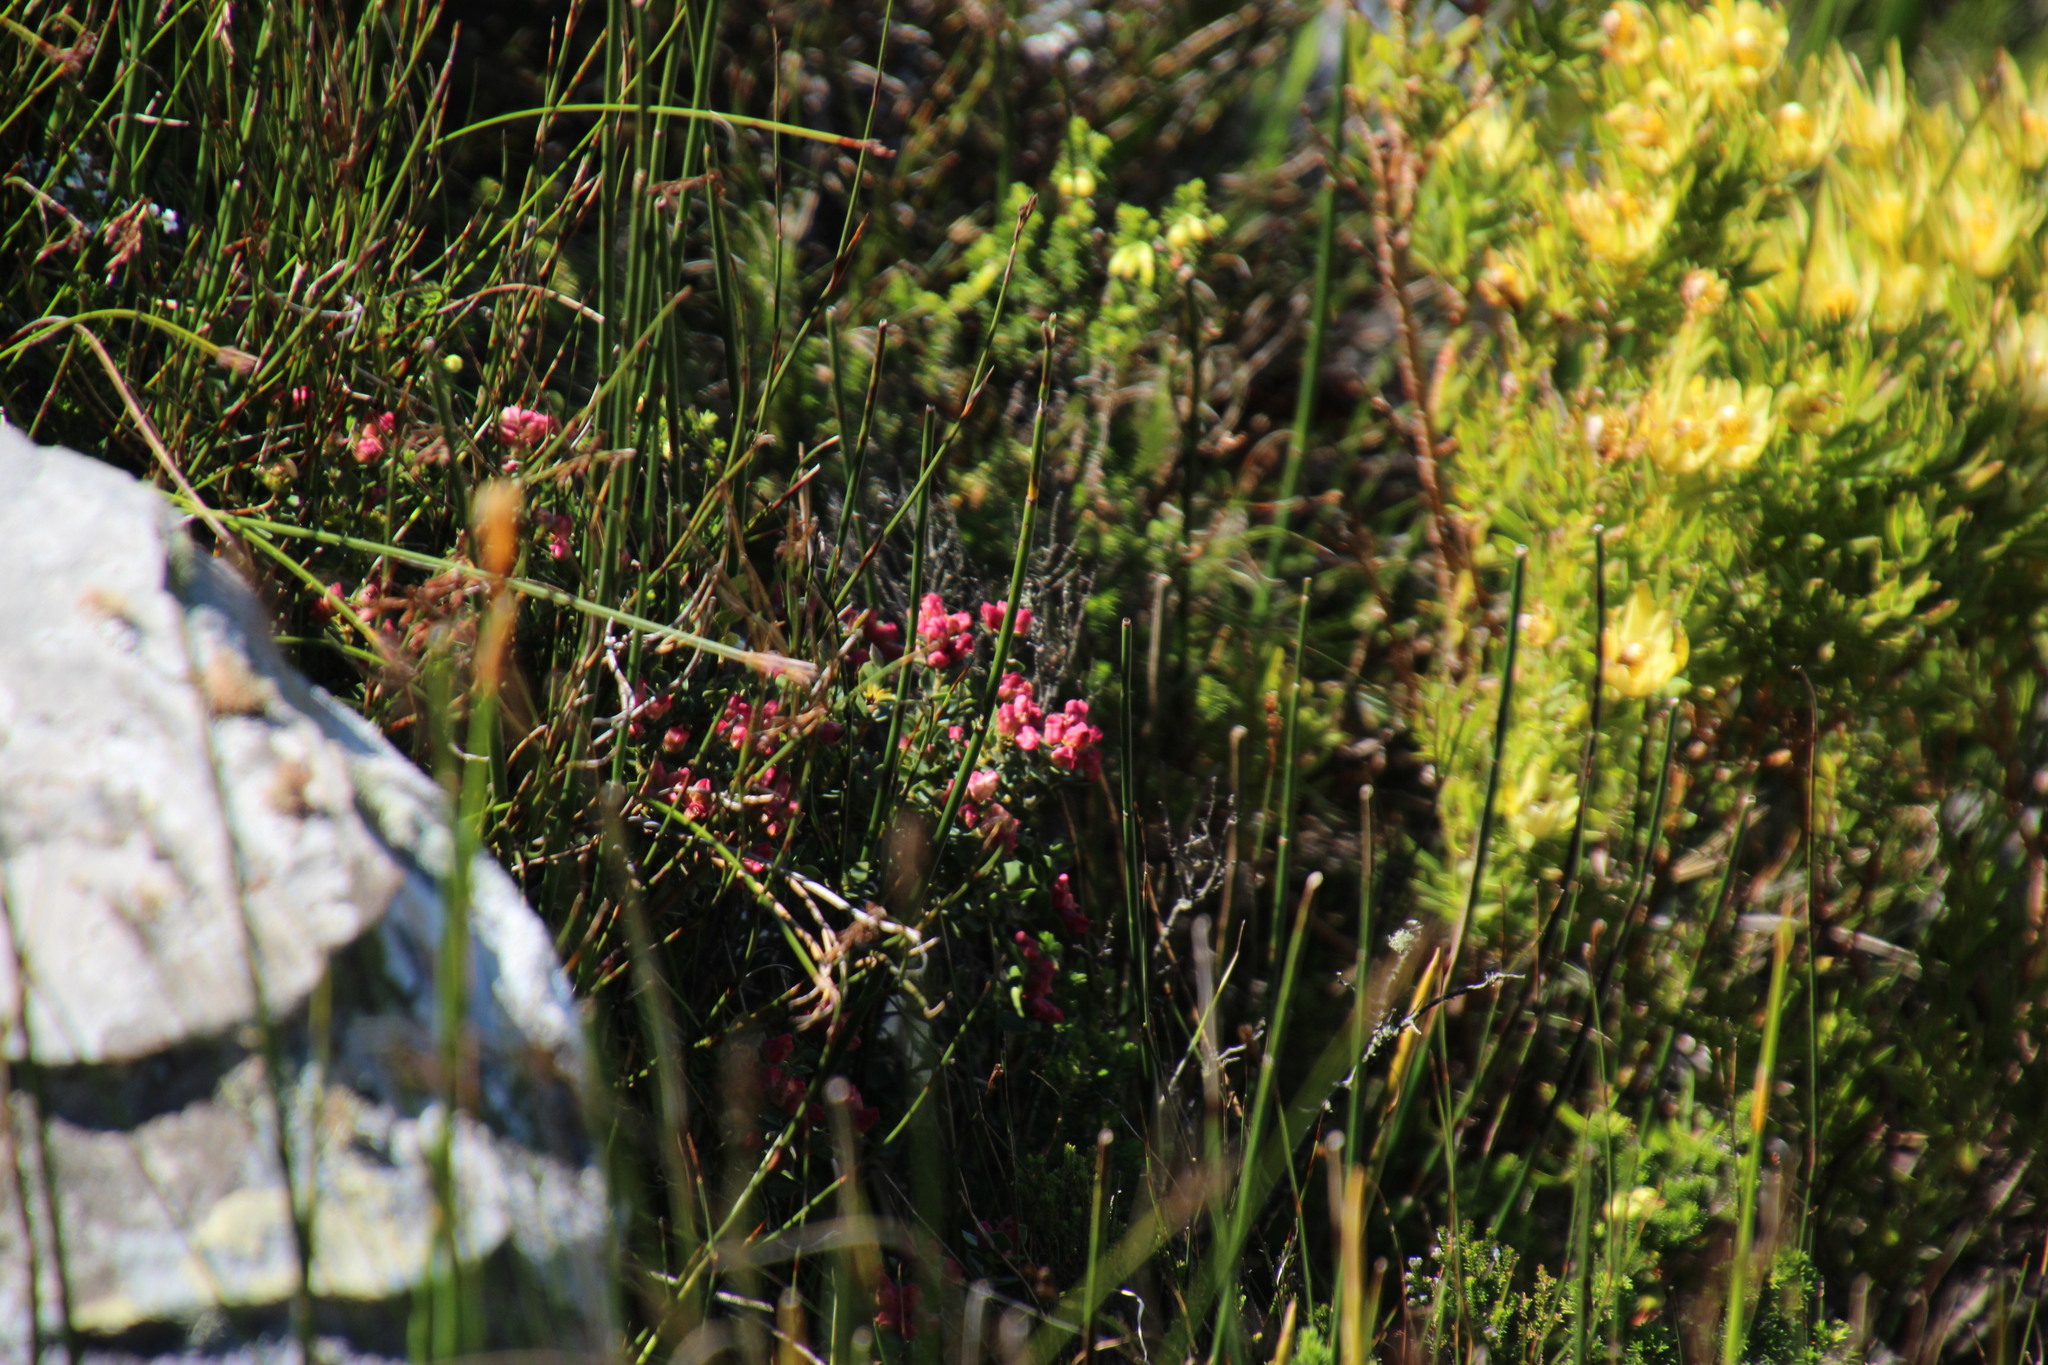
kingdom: Plantae
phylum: Tracheophyta
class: Magnoliopsida
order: Myrtales
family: Penaeaceae
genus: Brachysiphon
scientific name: Brachysiphon fucatus
